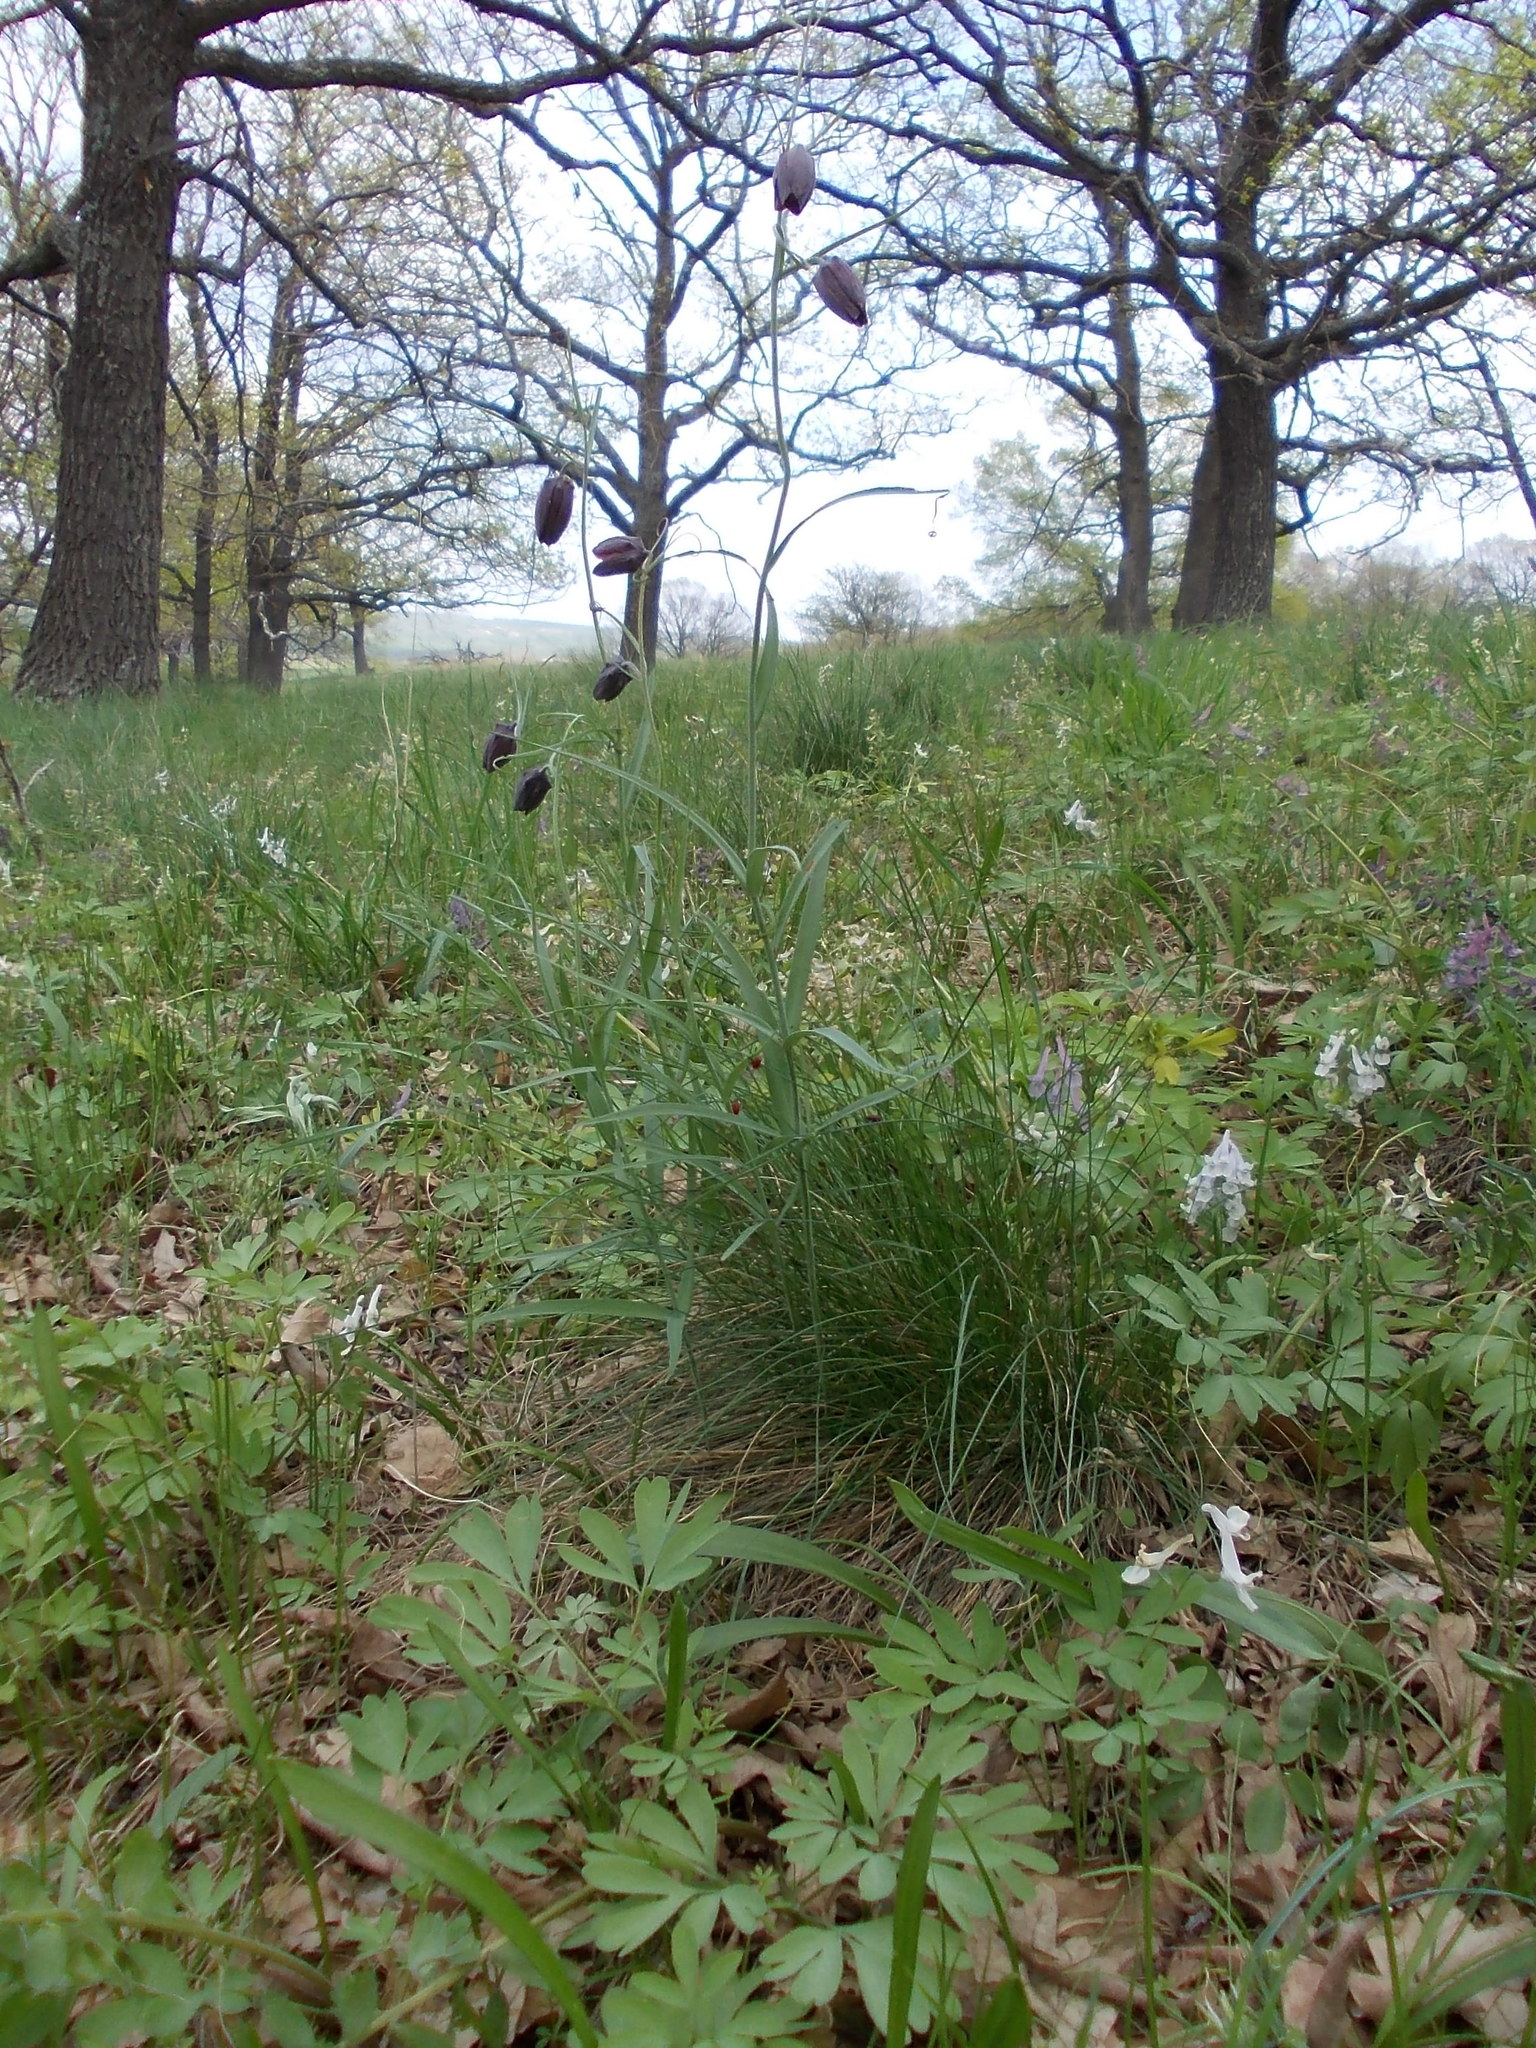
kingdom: Plantae
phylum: Tracheophyta
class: Liliopsida
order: Liliales
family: Liliaceae
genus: Fritillaria
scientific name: Fritillaria ruthenica
